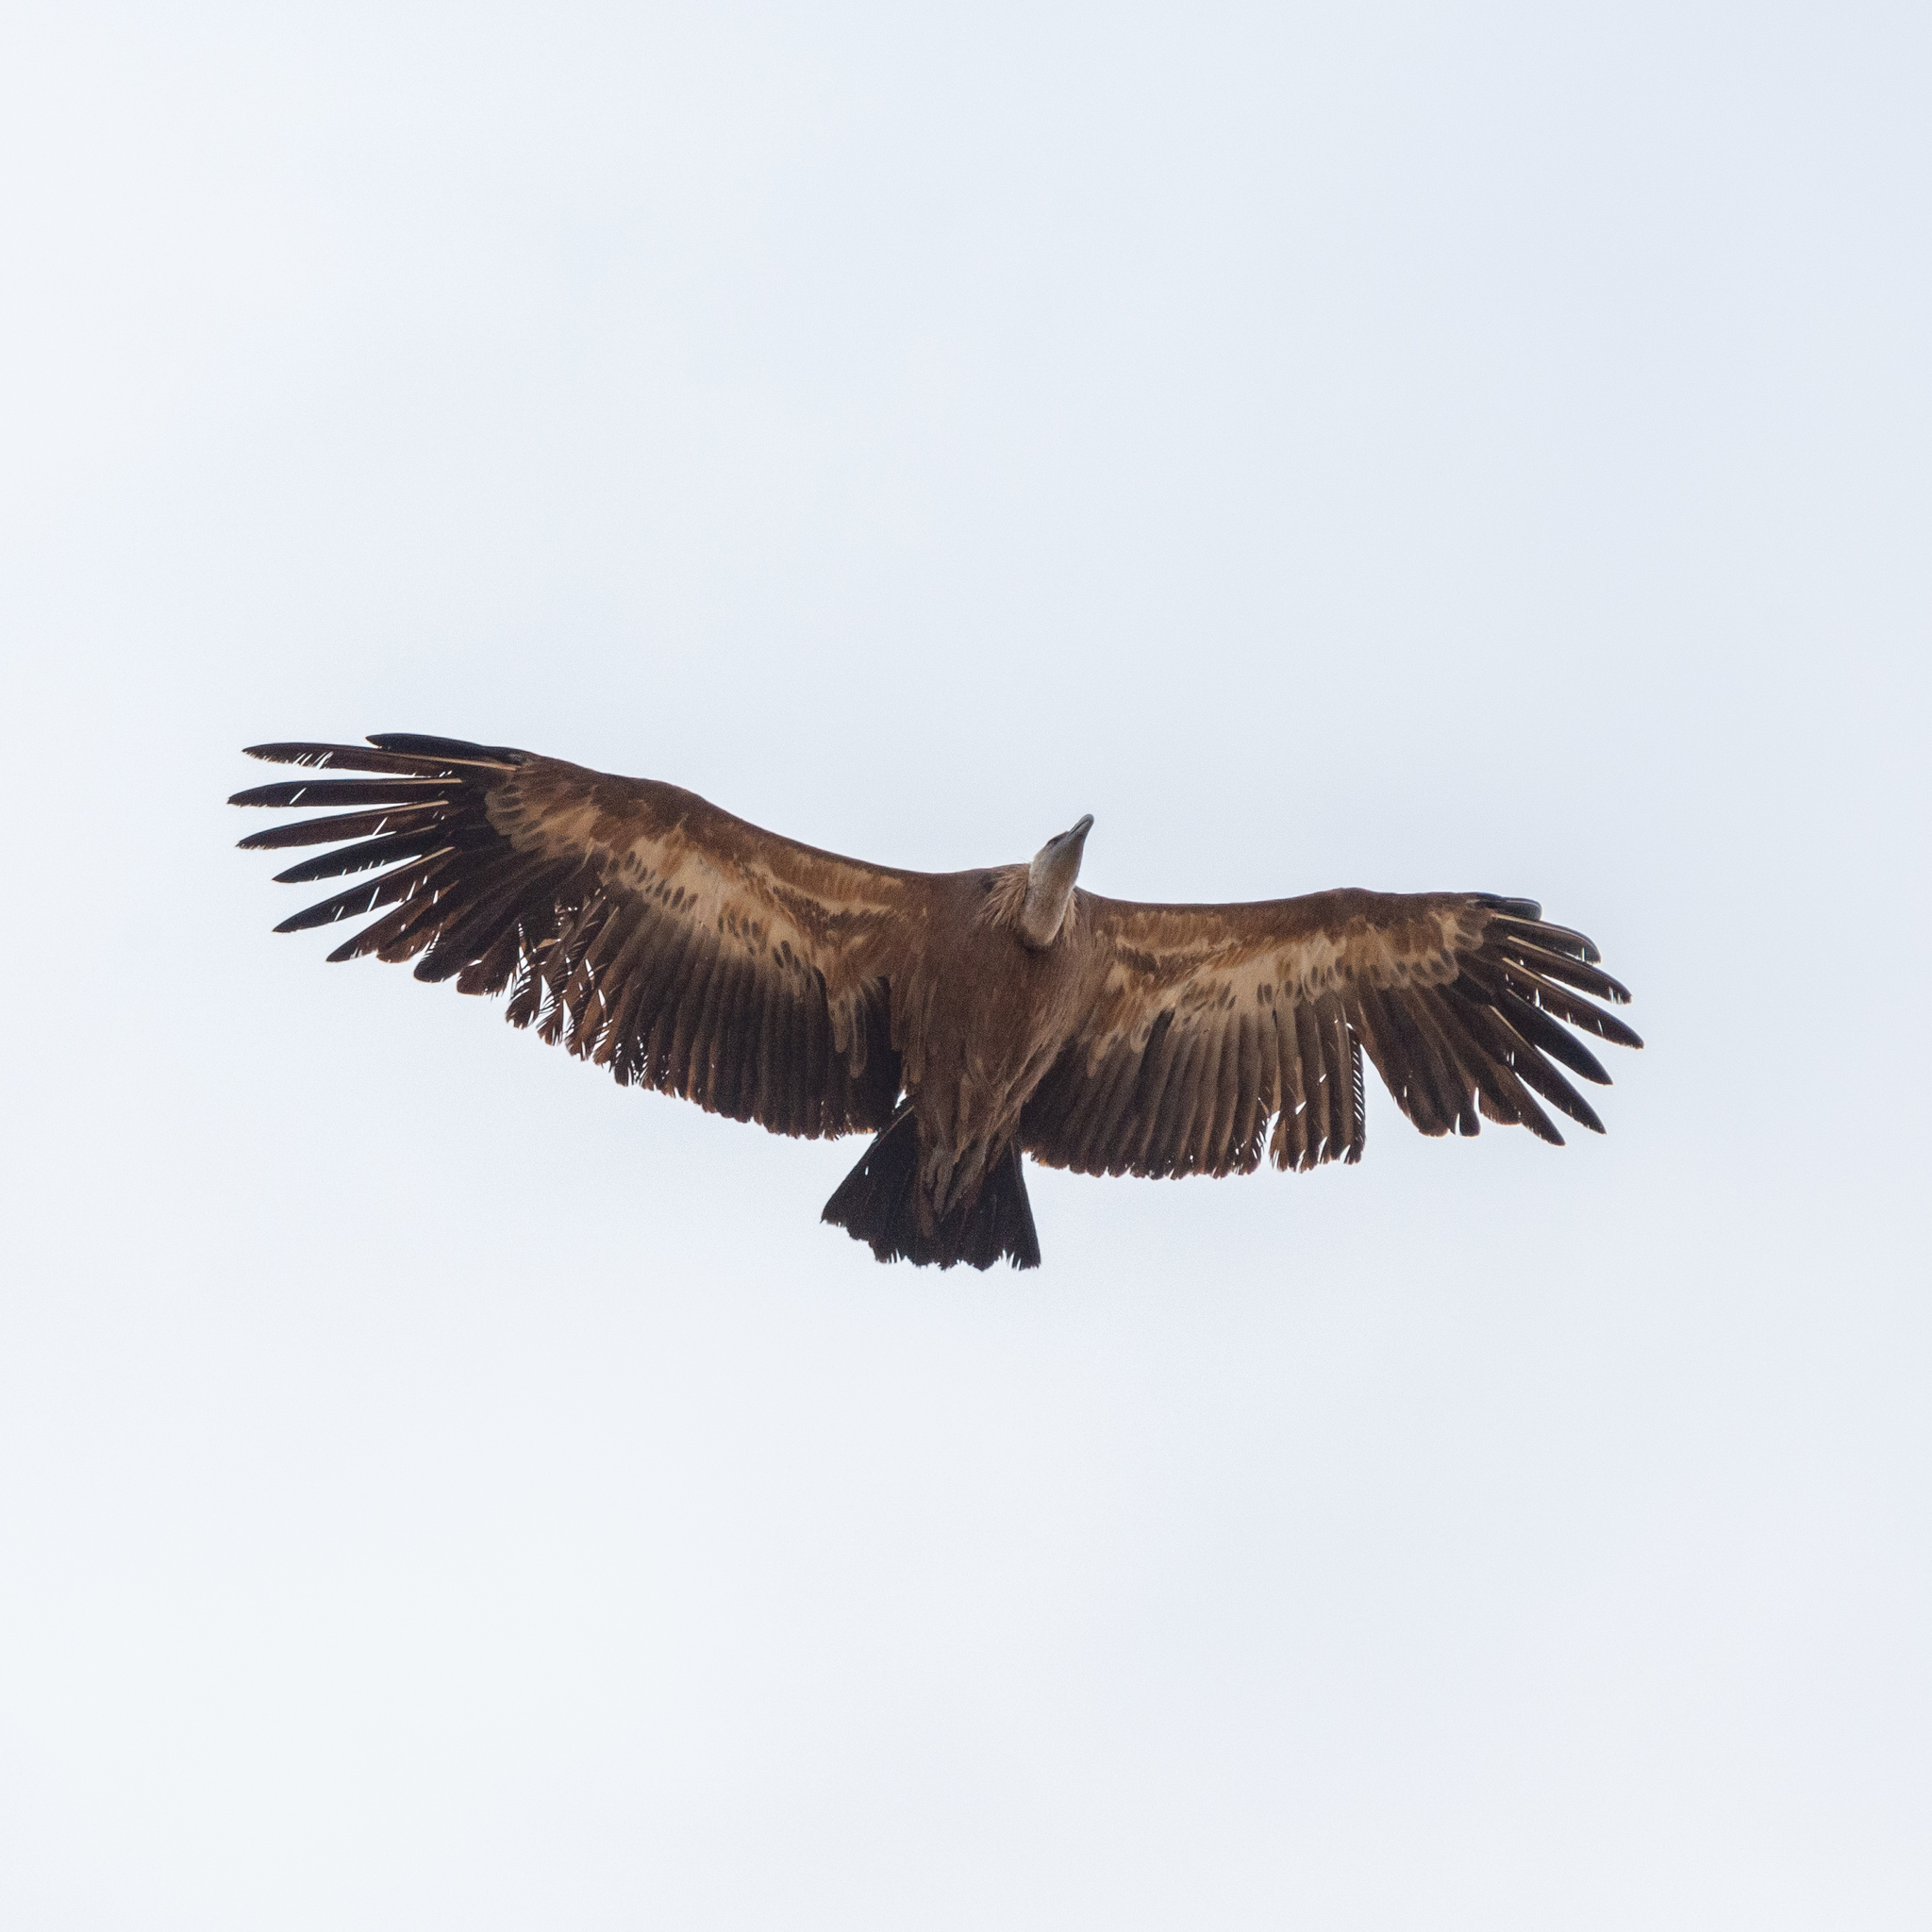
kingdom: Animalia
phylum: Chordata
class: Aves
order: Accipitriformes
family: Accipitridae
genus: Gyps
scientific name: Gyps fulvus
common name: Griffon vulture
